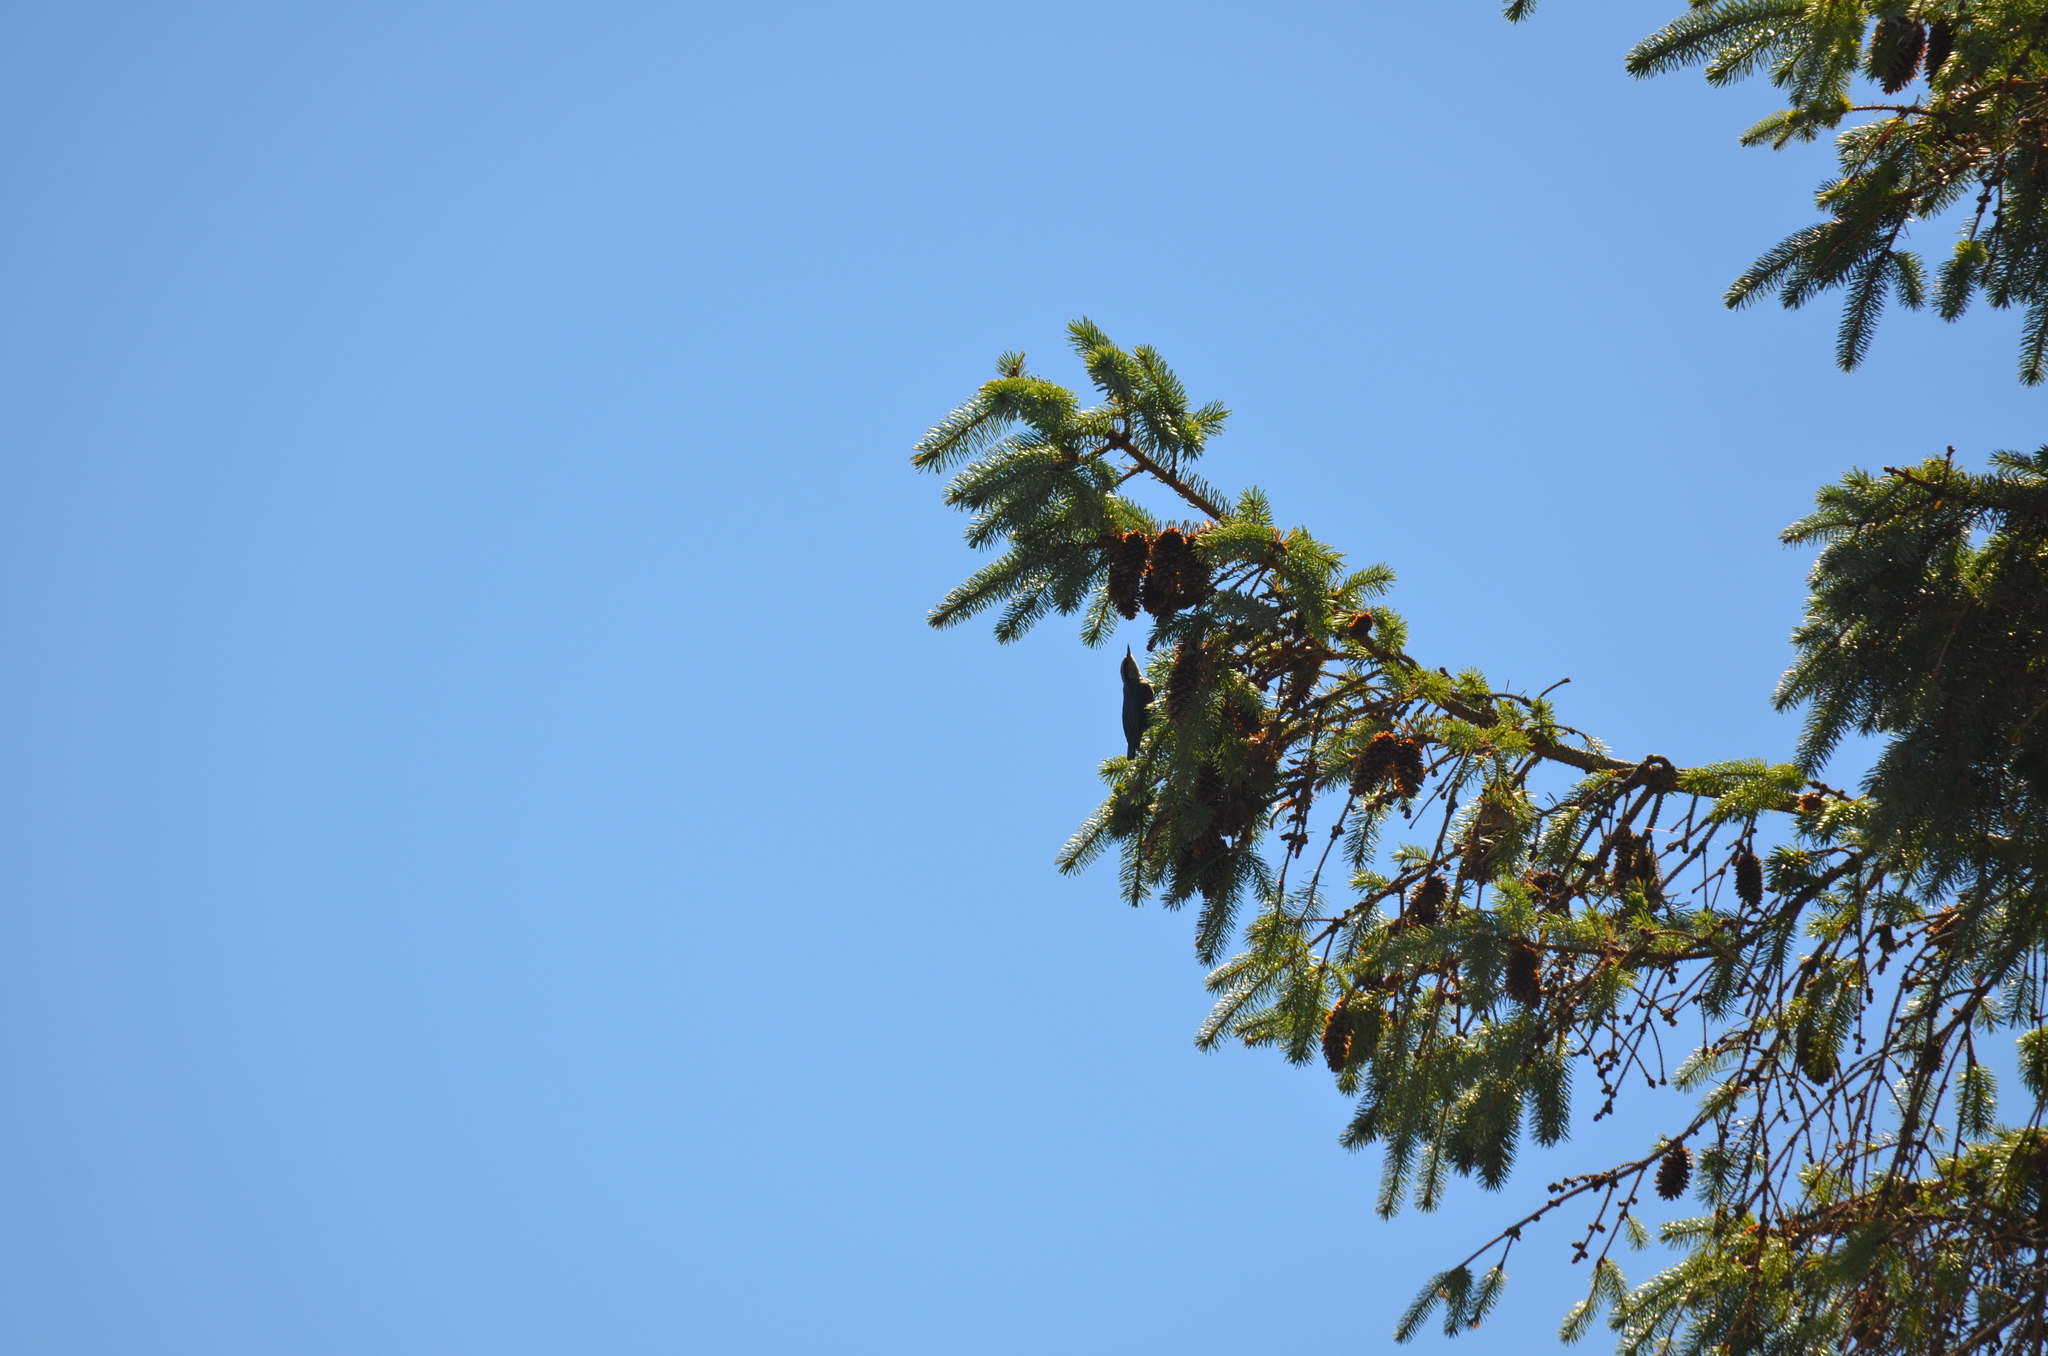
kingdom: Animalia
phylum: Chordata
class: Aves
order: Passeriformes
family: Sittidae
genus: Sitta
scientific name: Sitta canadensis
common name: Red-breasted nuthatch
